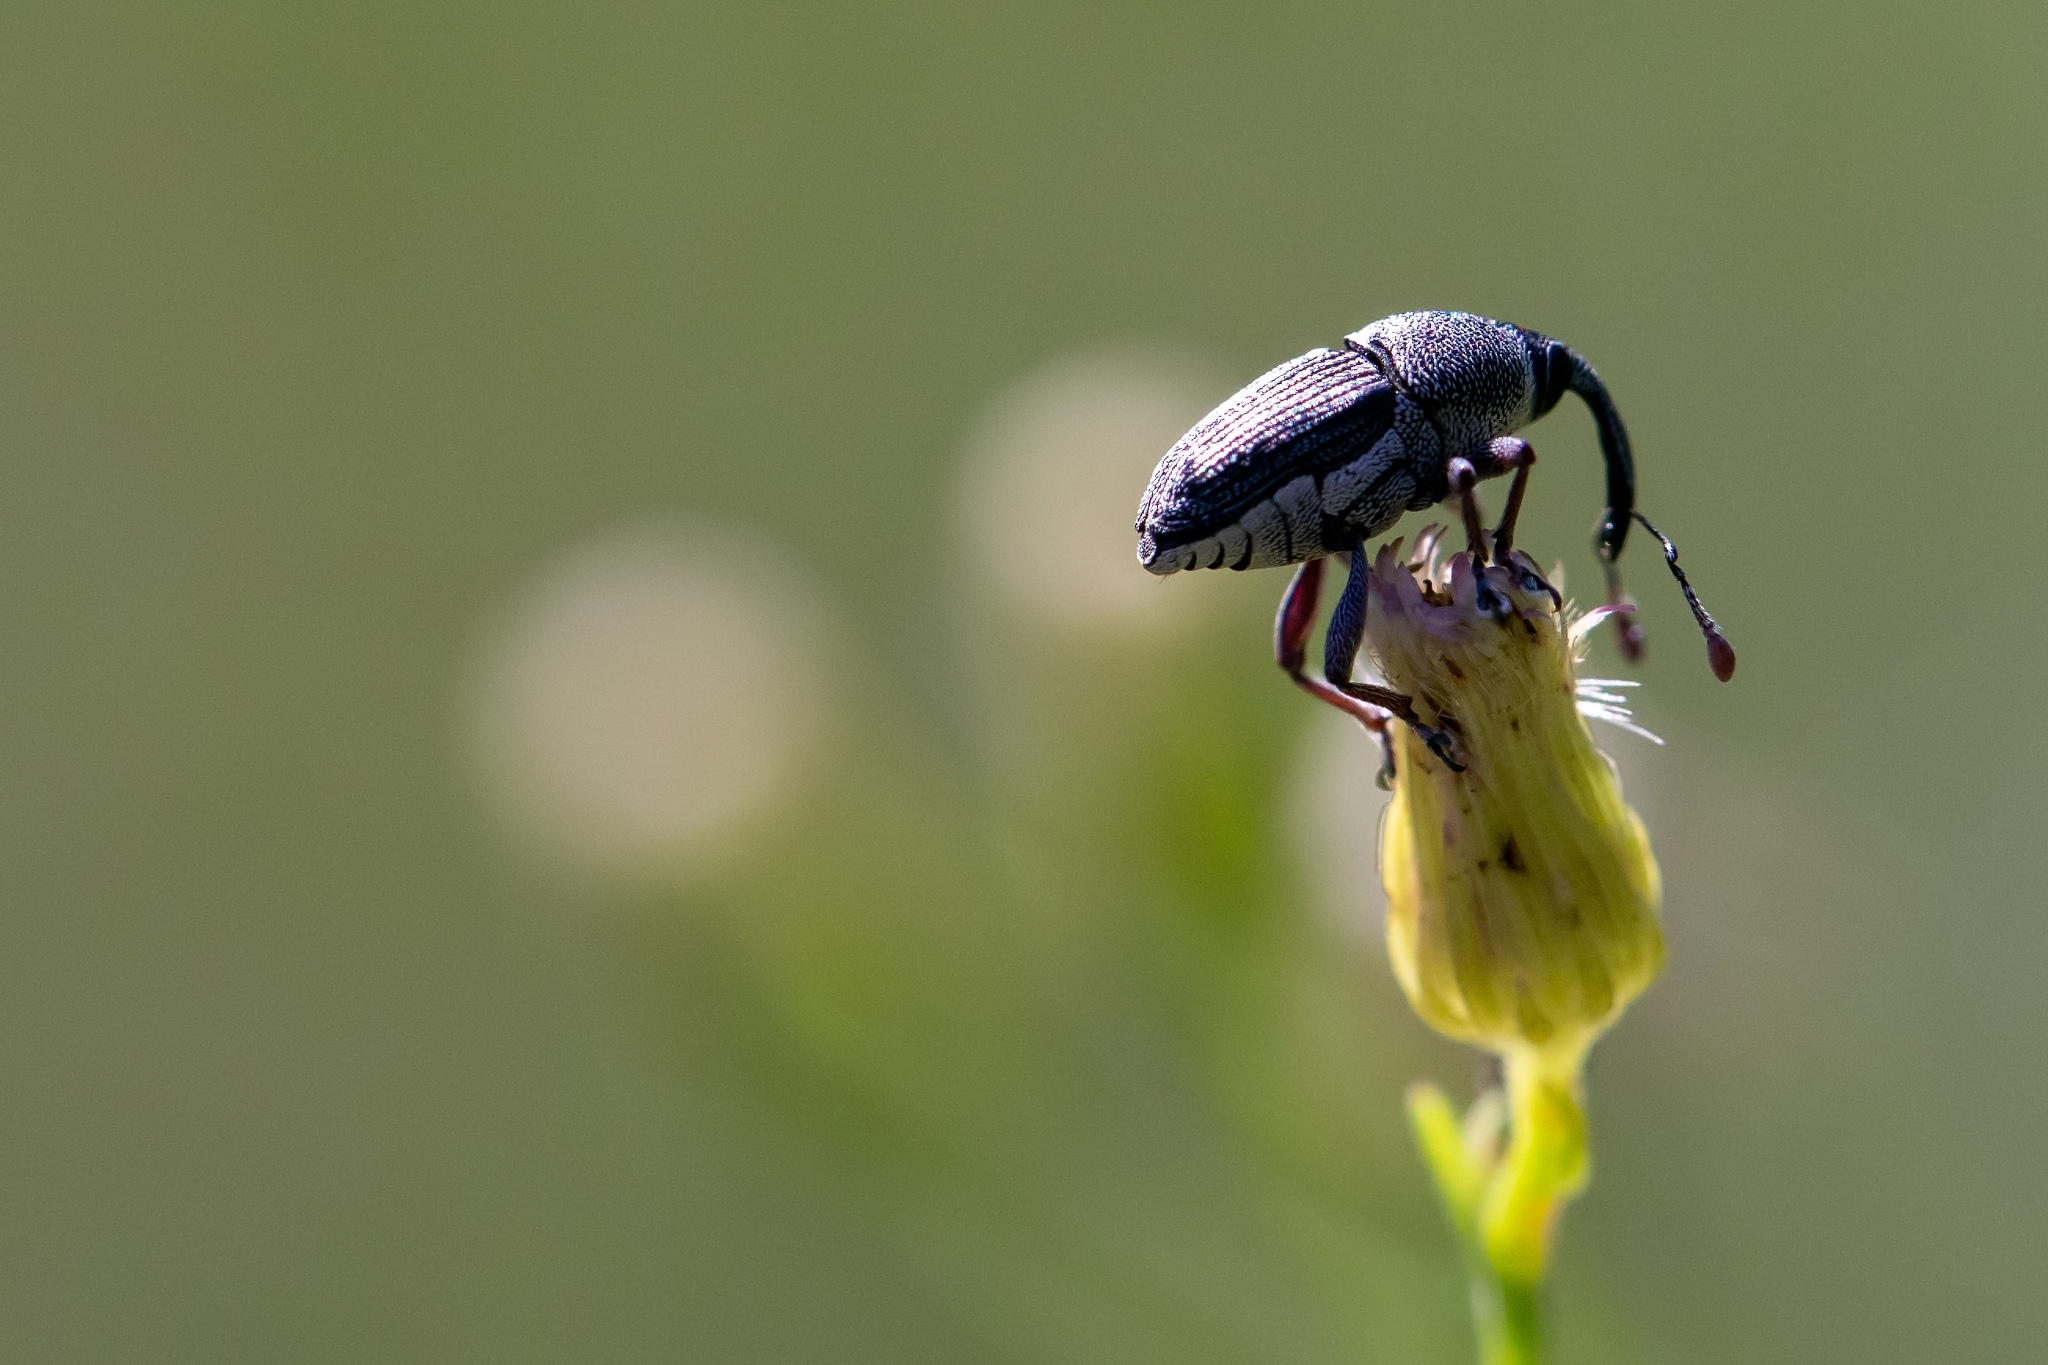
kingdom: Animalia
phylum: Arthropoda
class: Insecta
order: Coleoptera
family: Curculionidae
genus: Odontocorynus
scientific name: Odontocorynus larvatus
